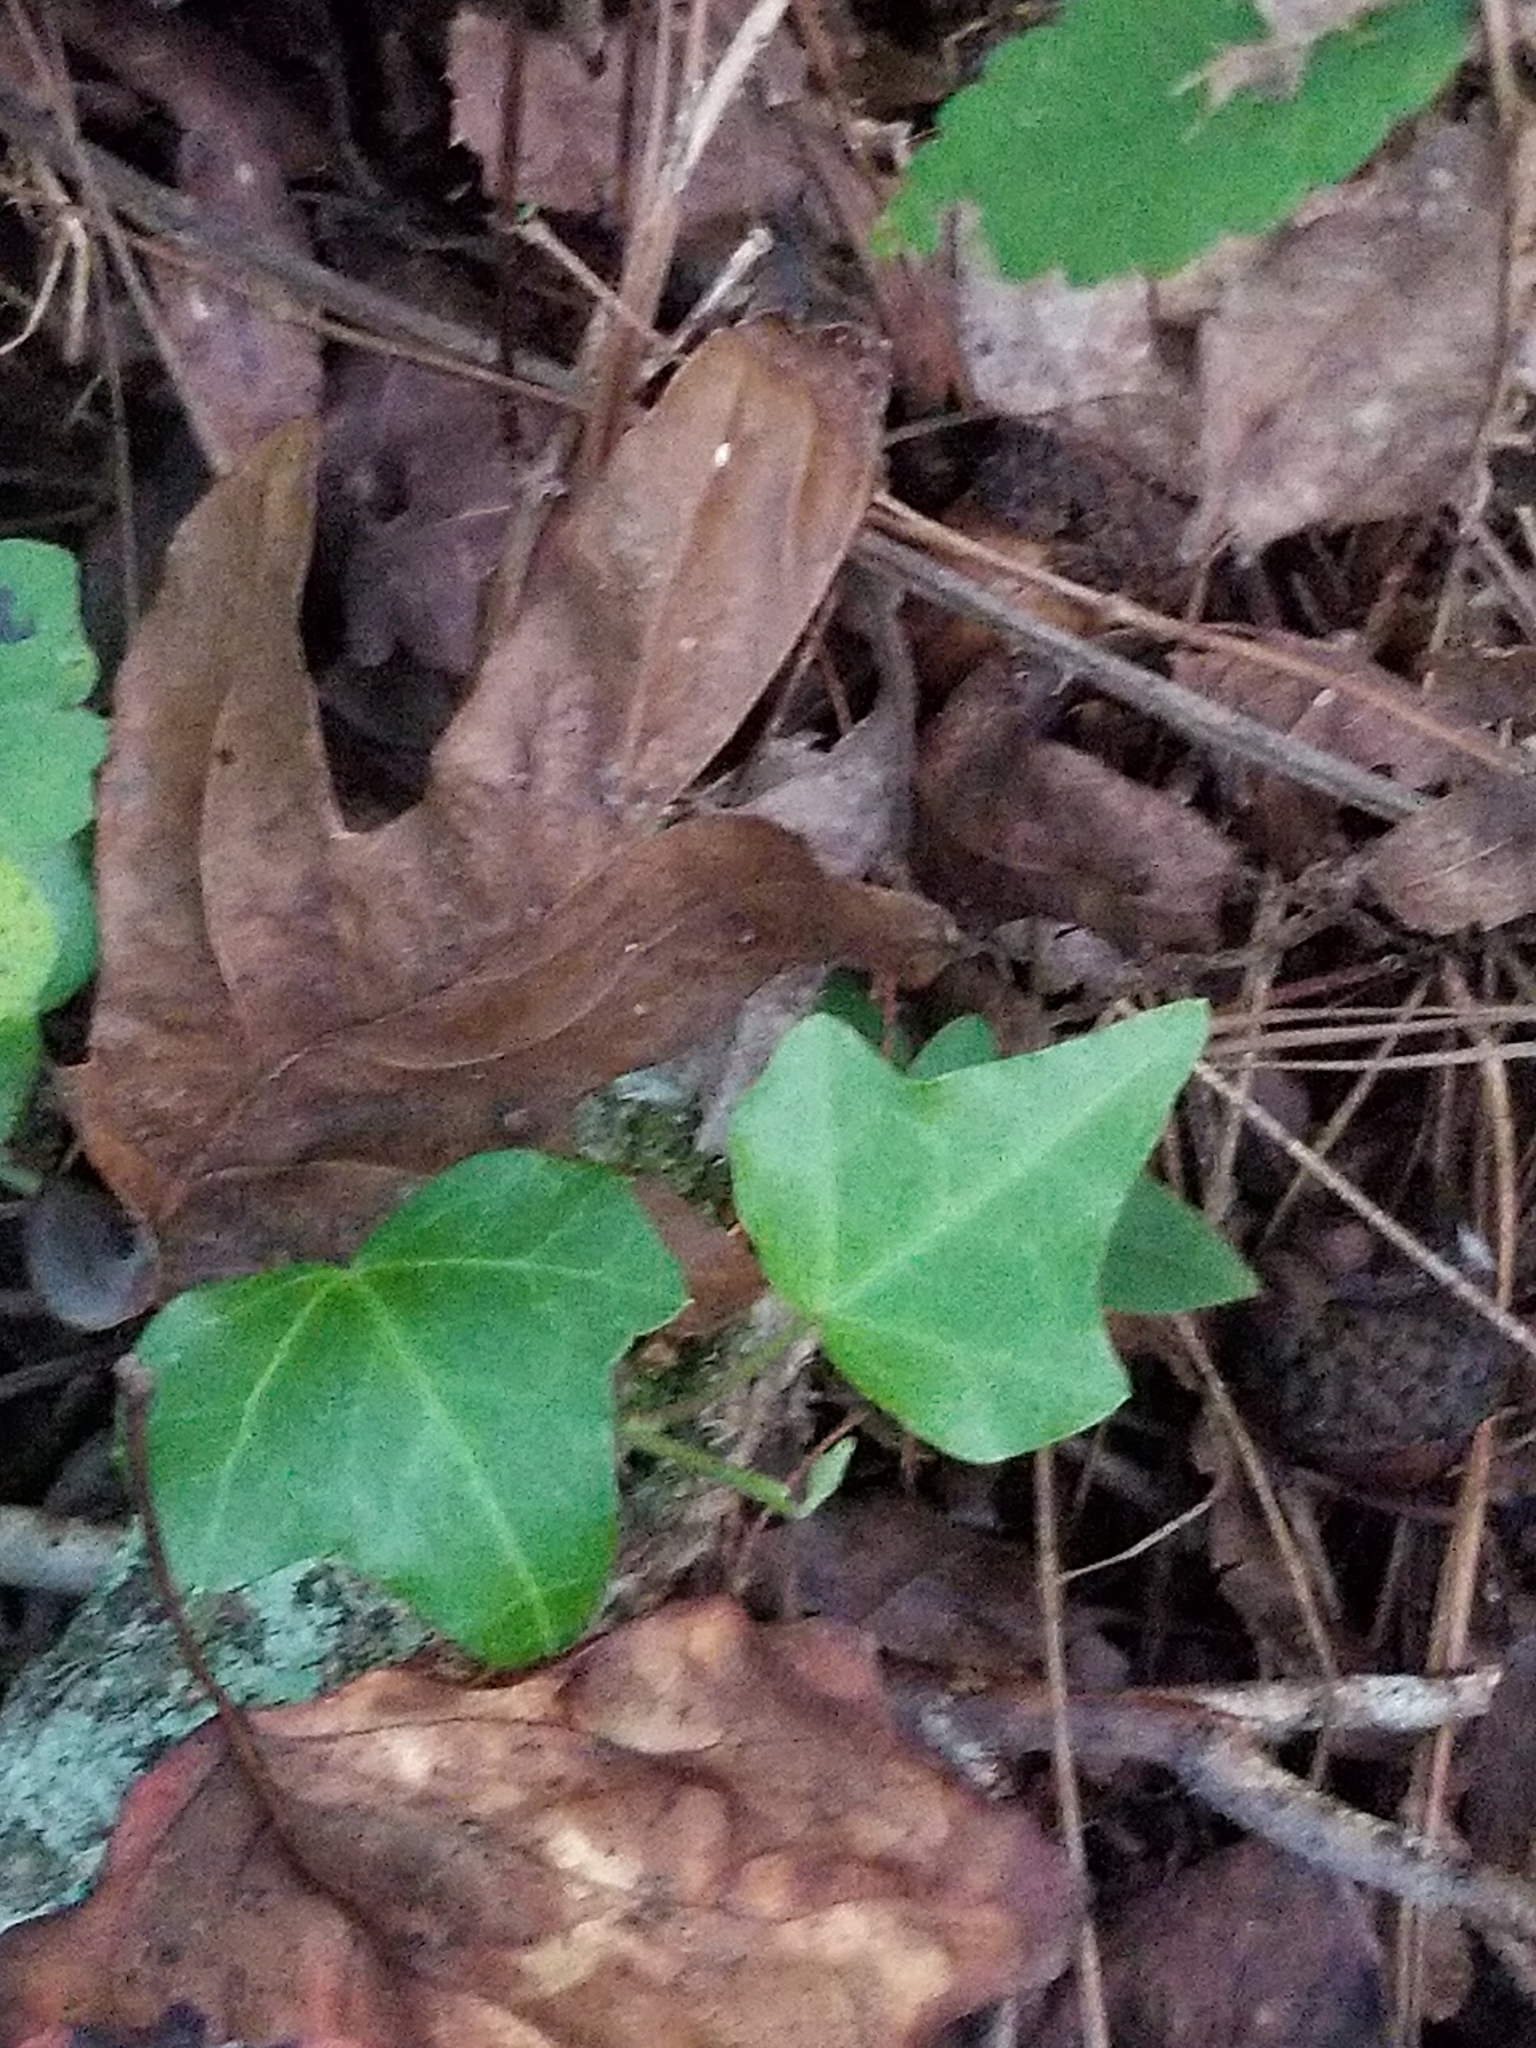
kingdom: Plantae
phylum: Tracheophyta
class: Magnoliopsida
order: Apiales
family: Araliaceae
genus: Hedera
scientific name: Hedera helix
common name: Ivy
